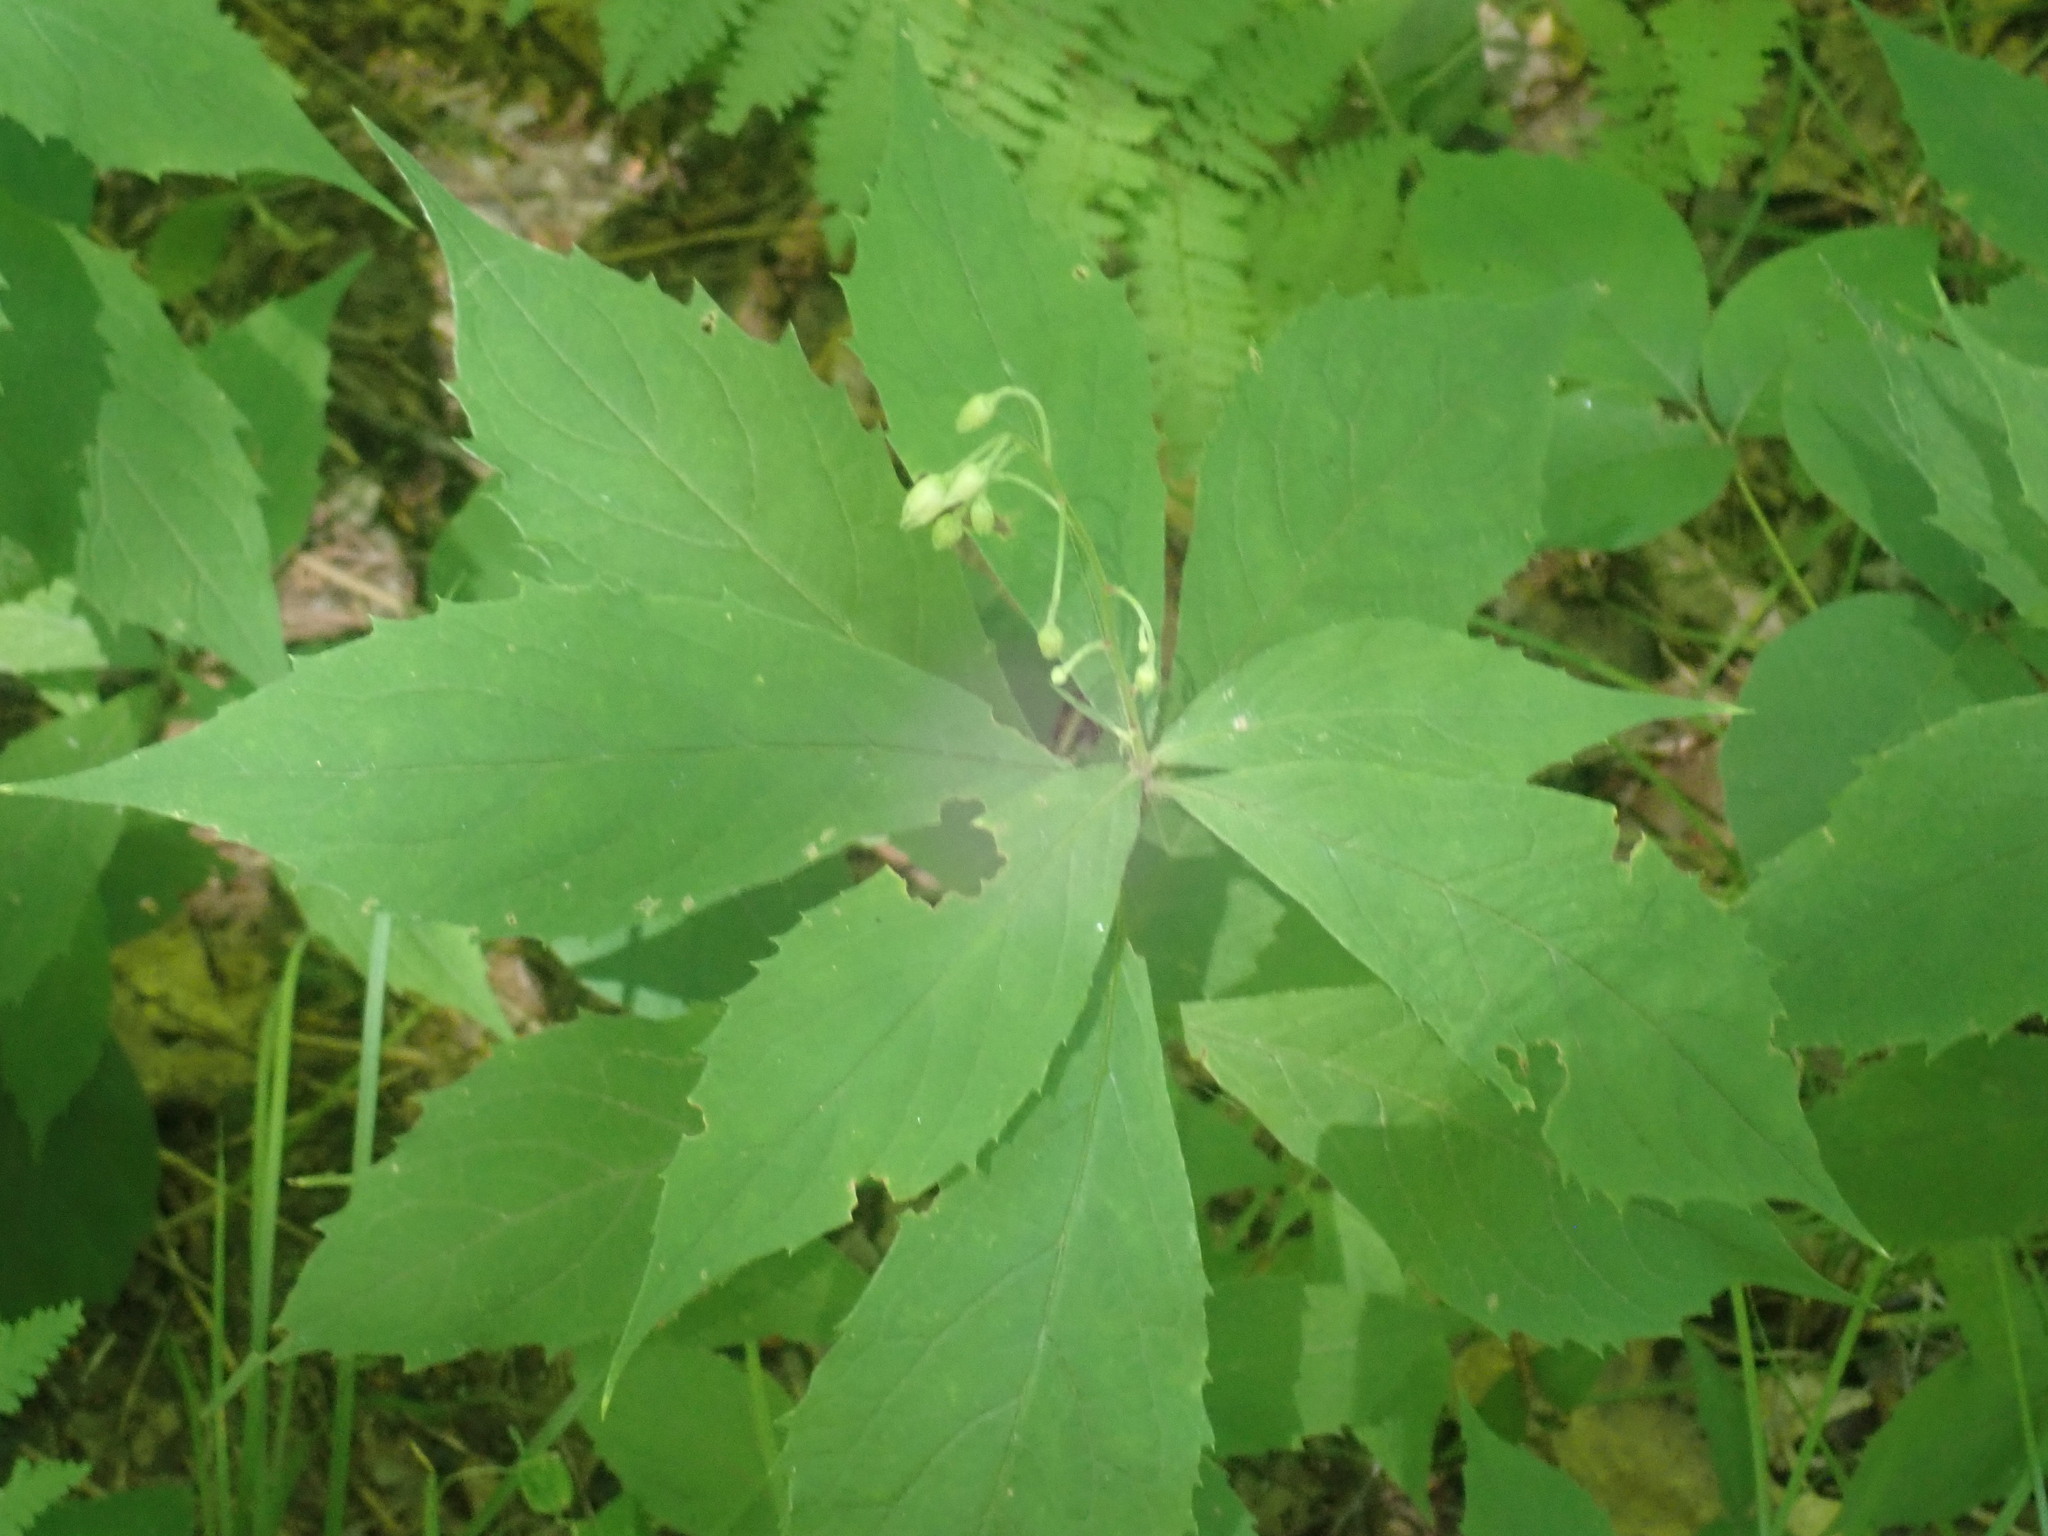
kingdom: Plantae
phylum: Tracheophyta
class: Magnoliopsida
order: Asterales
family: Asteraceae
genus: Oclemena
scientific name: Oclemena acuminata
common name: Mountain aster
